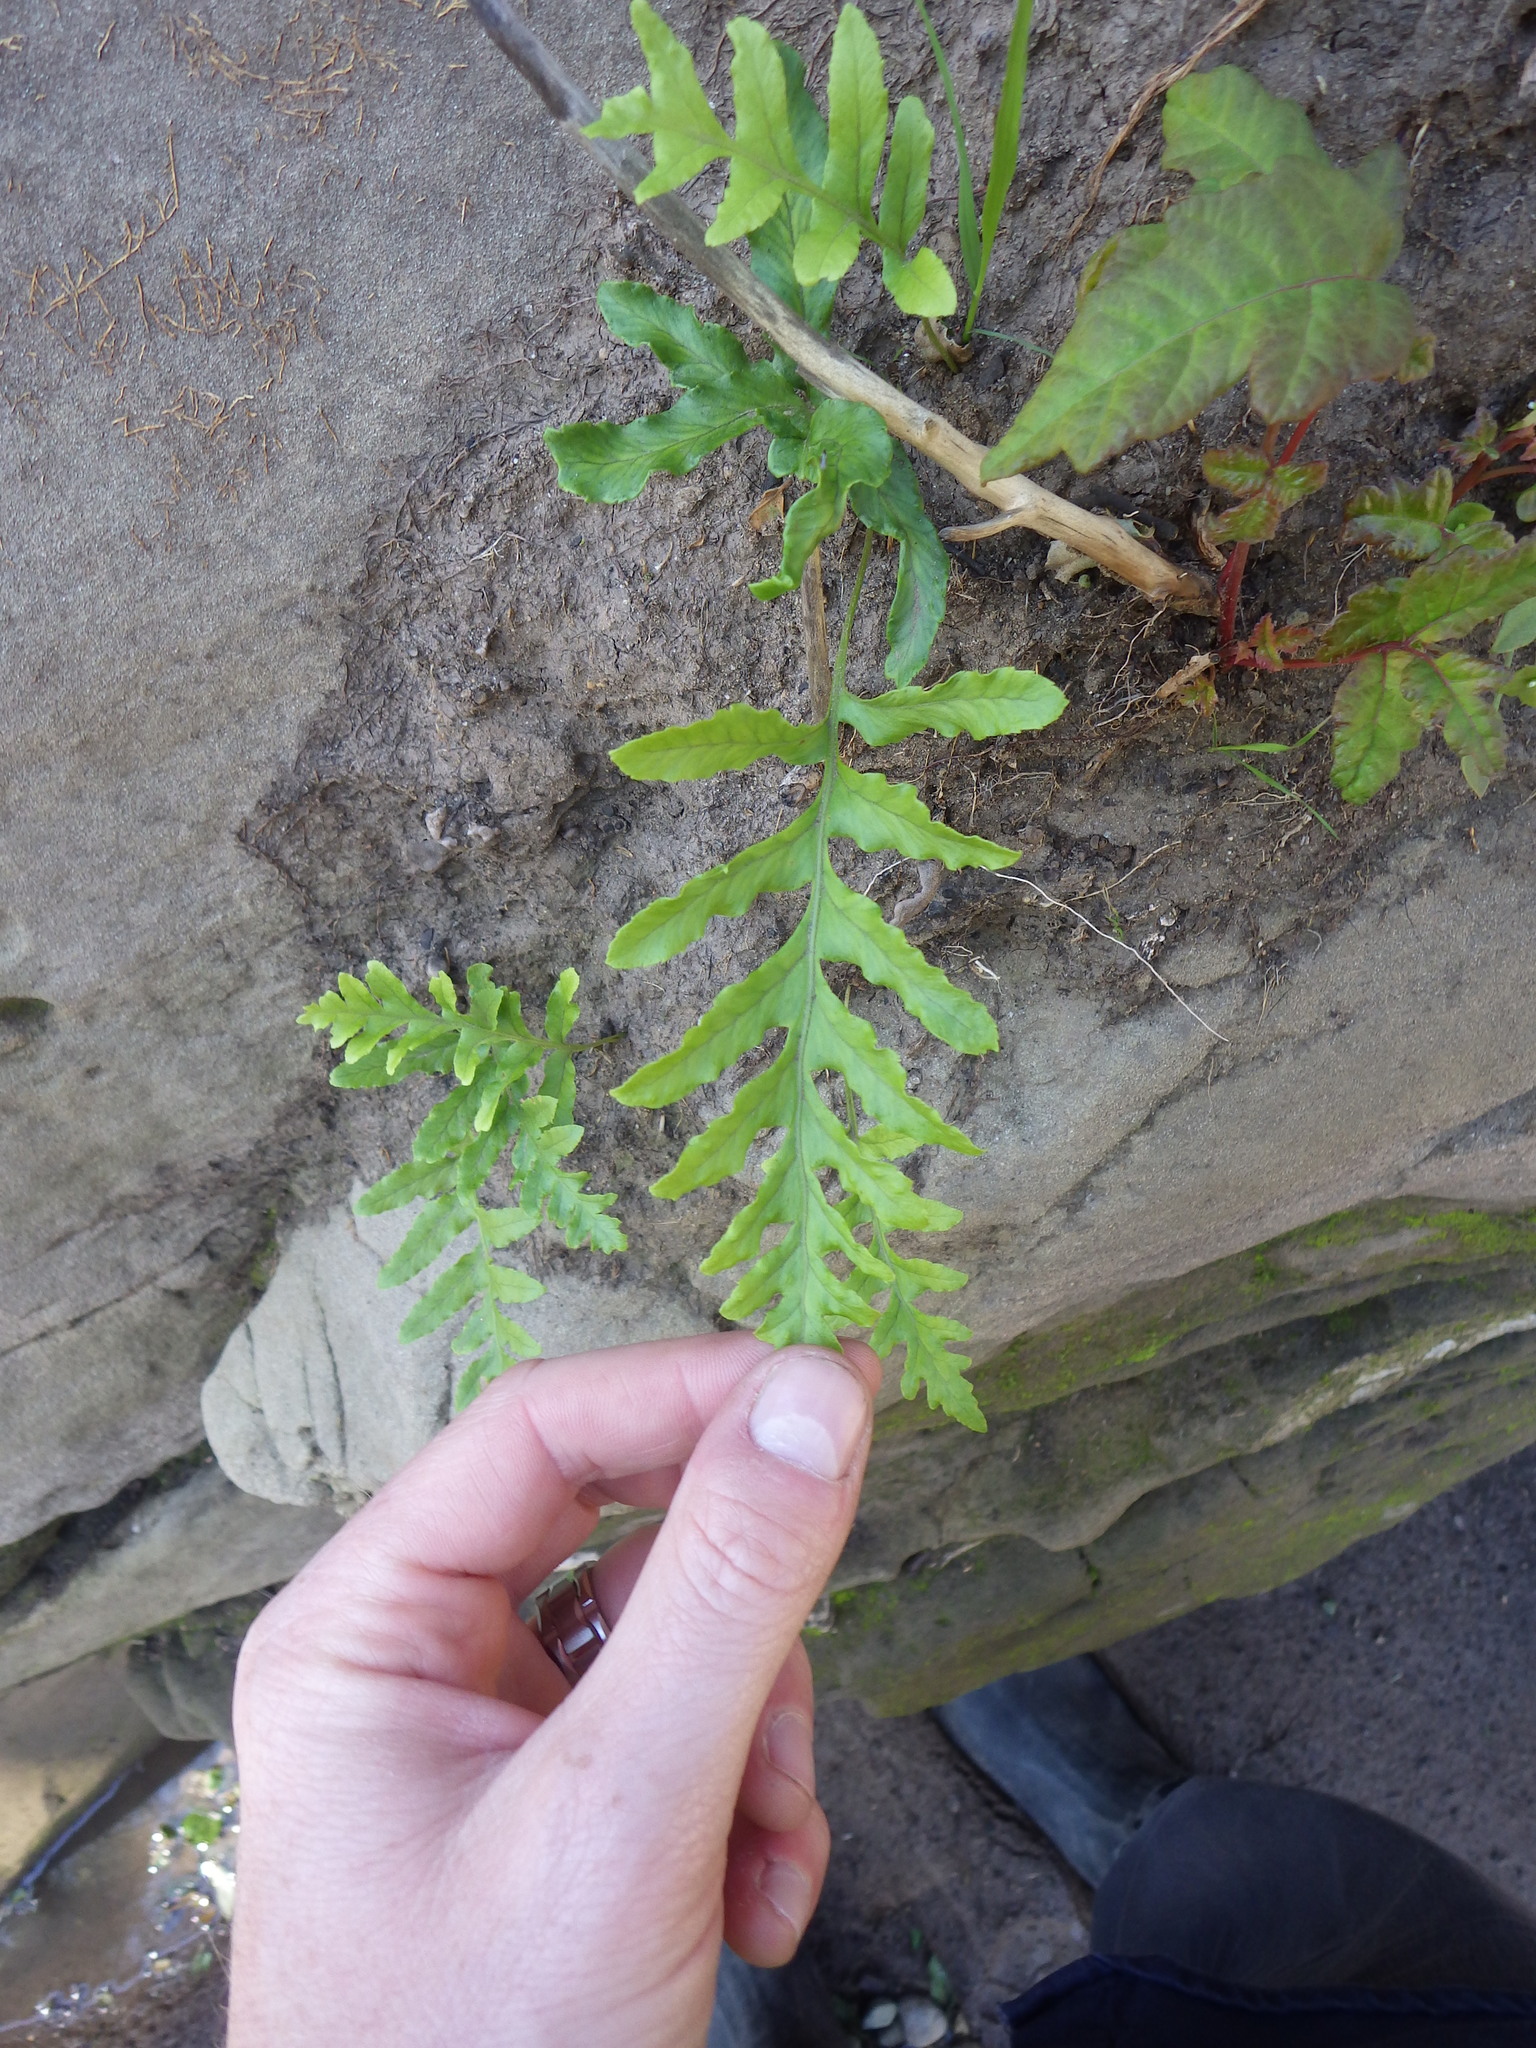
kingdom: Plantae
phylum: Tracheophyta
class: Polypodiopsida
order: Polypodiales
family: Polypodiaceae
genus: Polypodium
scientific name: Polypodium californicum
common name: California polypody
